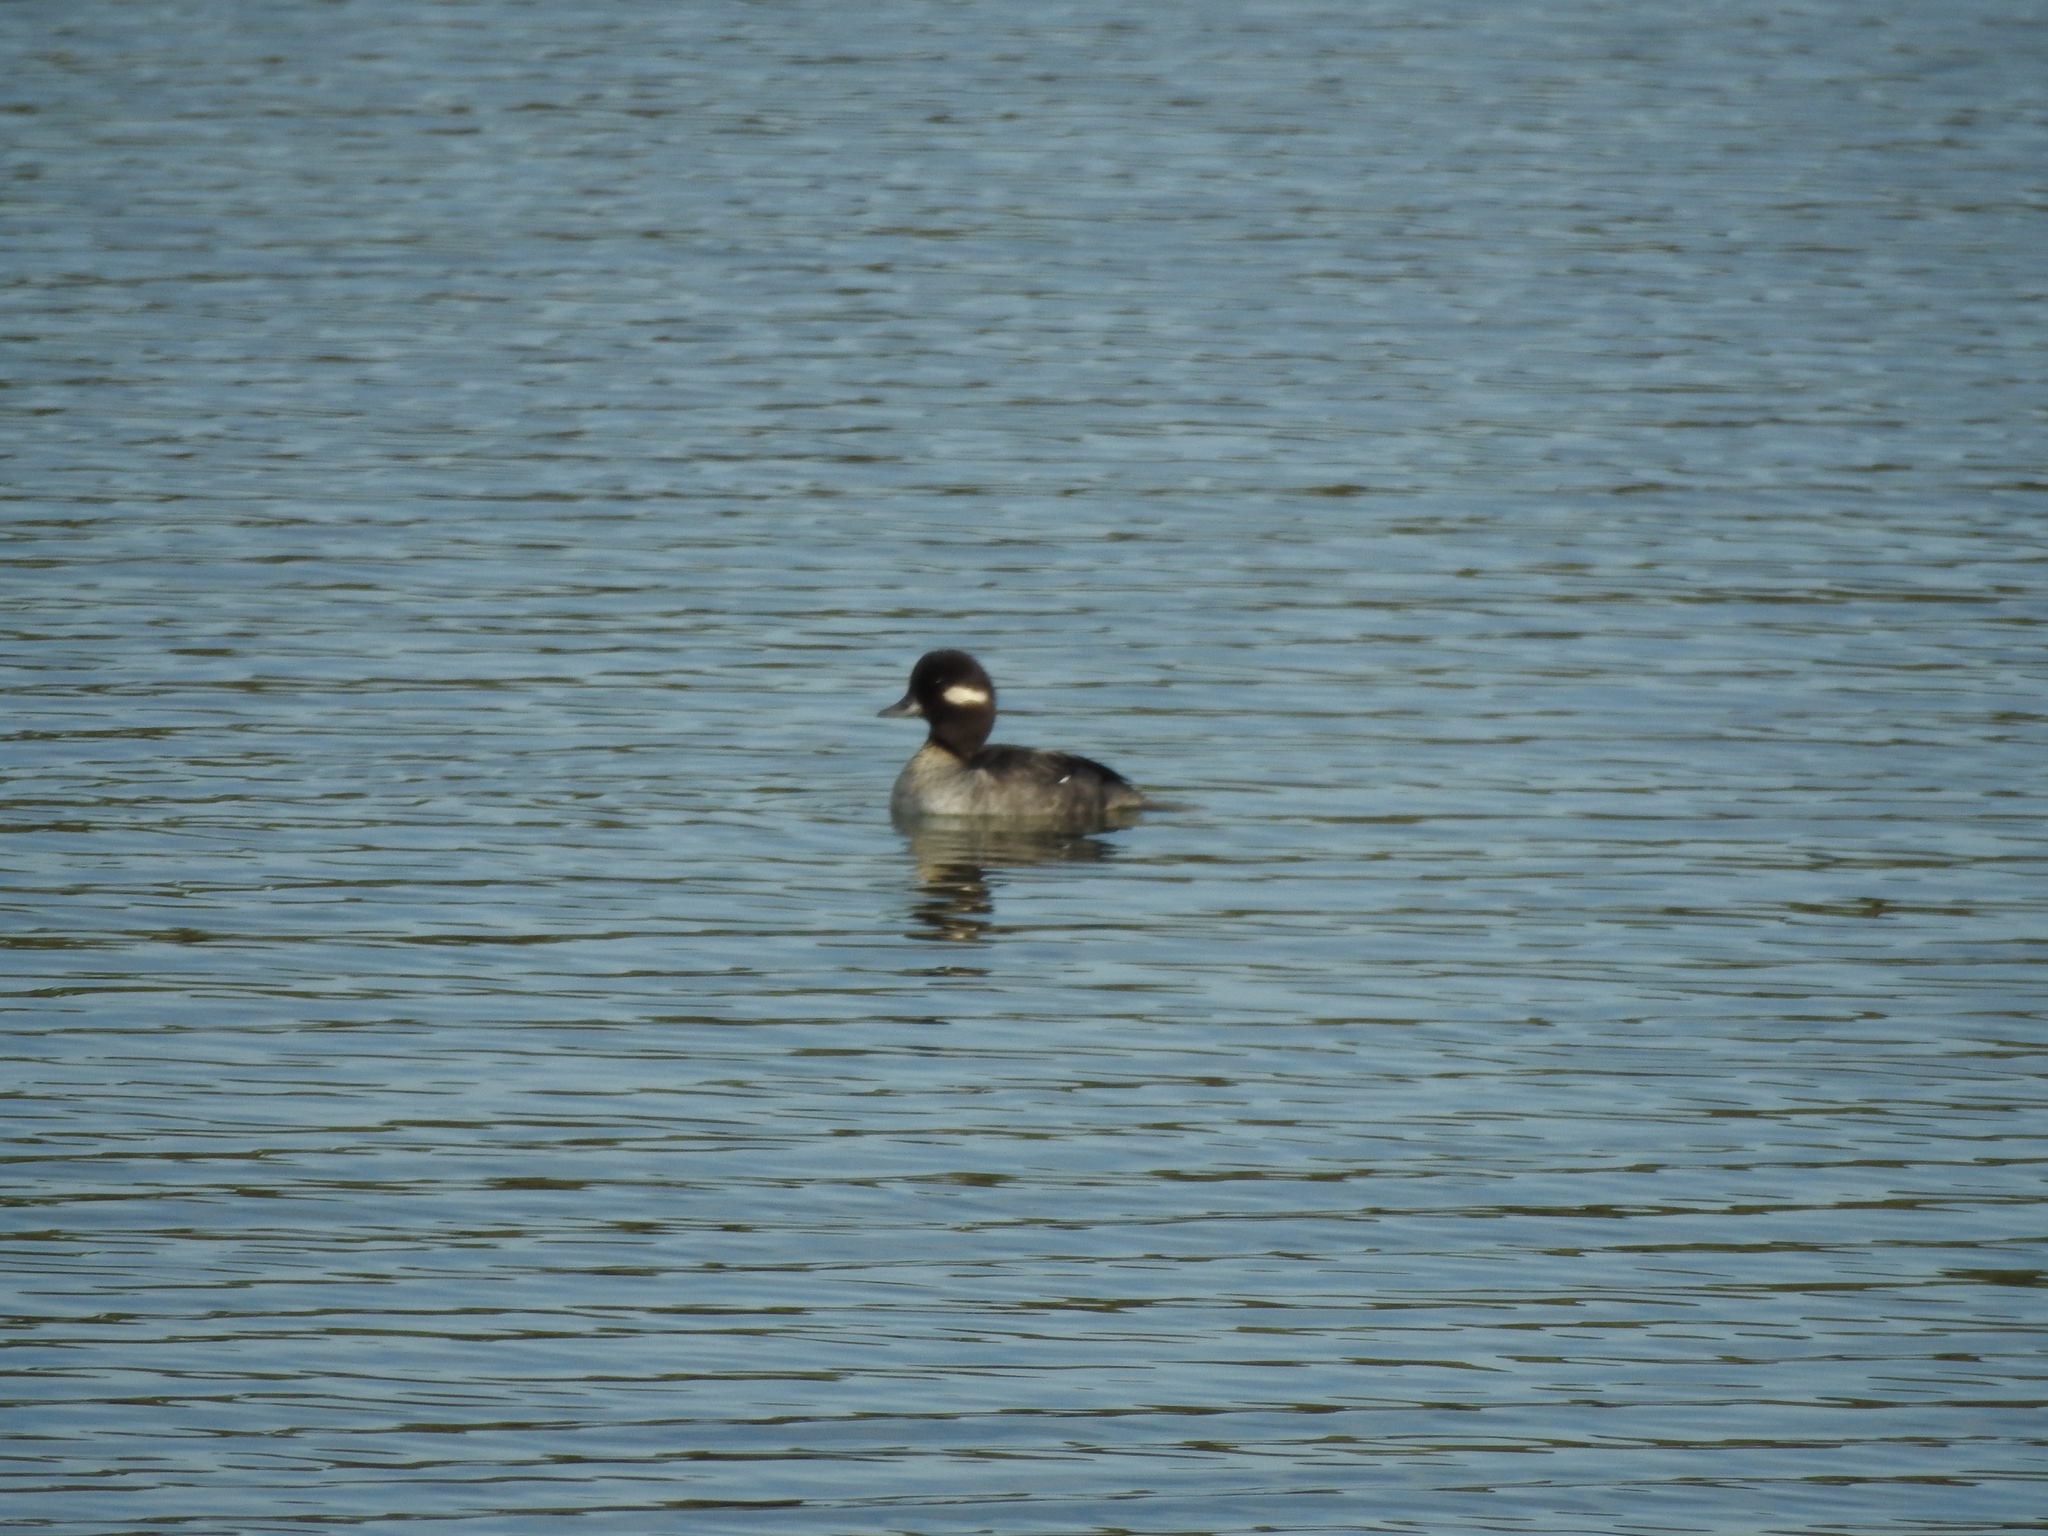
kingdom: Animalia
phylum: Chordata
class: Aves
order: Anseriformes
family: Anatidae
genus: Bucephala
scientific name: Bucephala albeola
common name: Bufflehead
